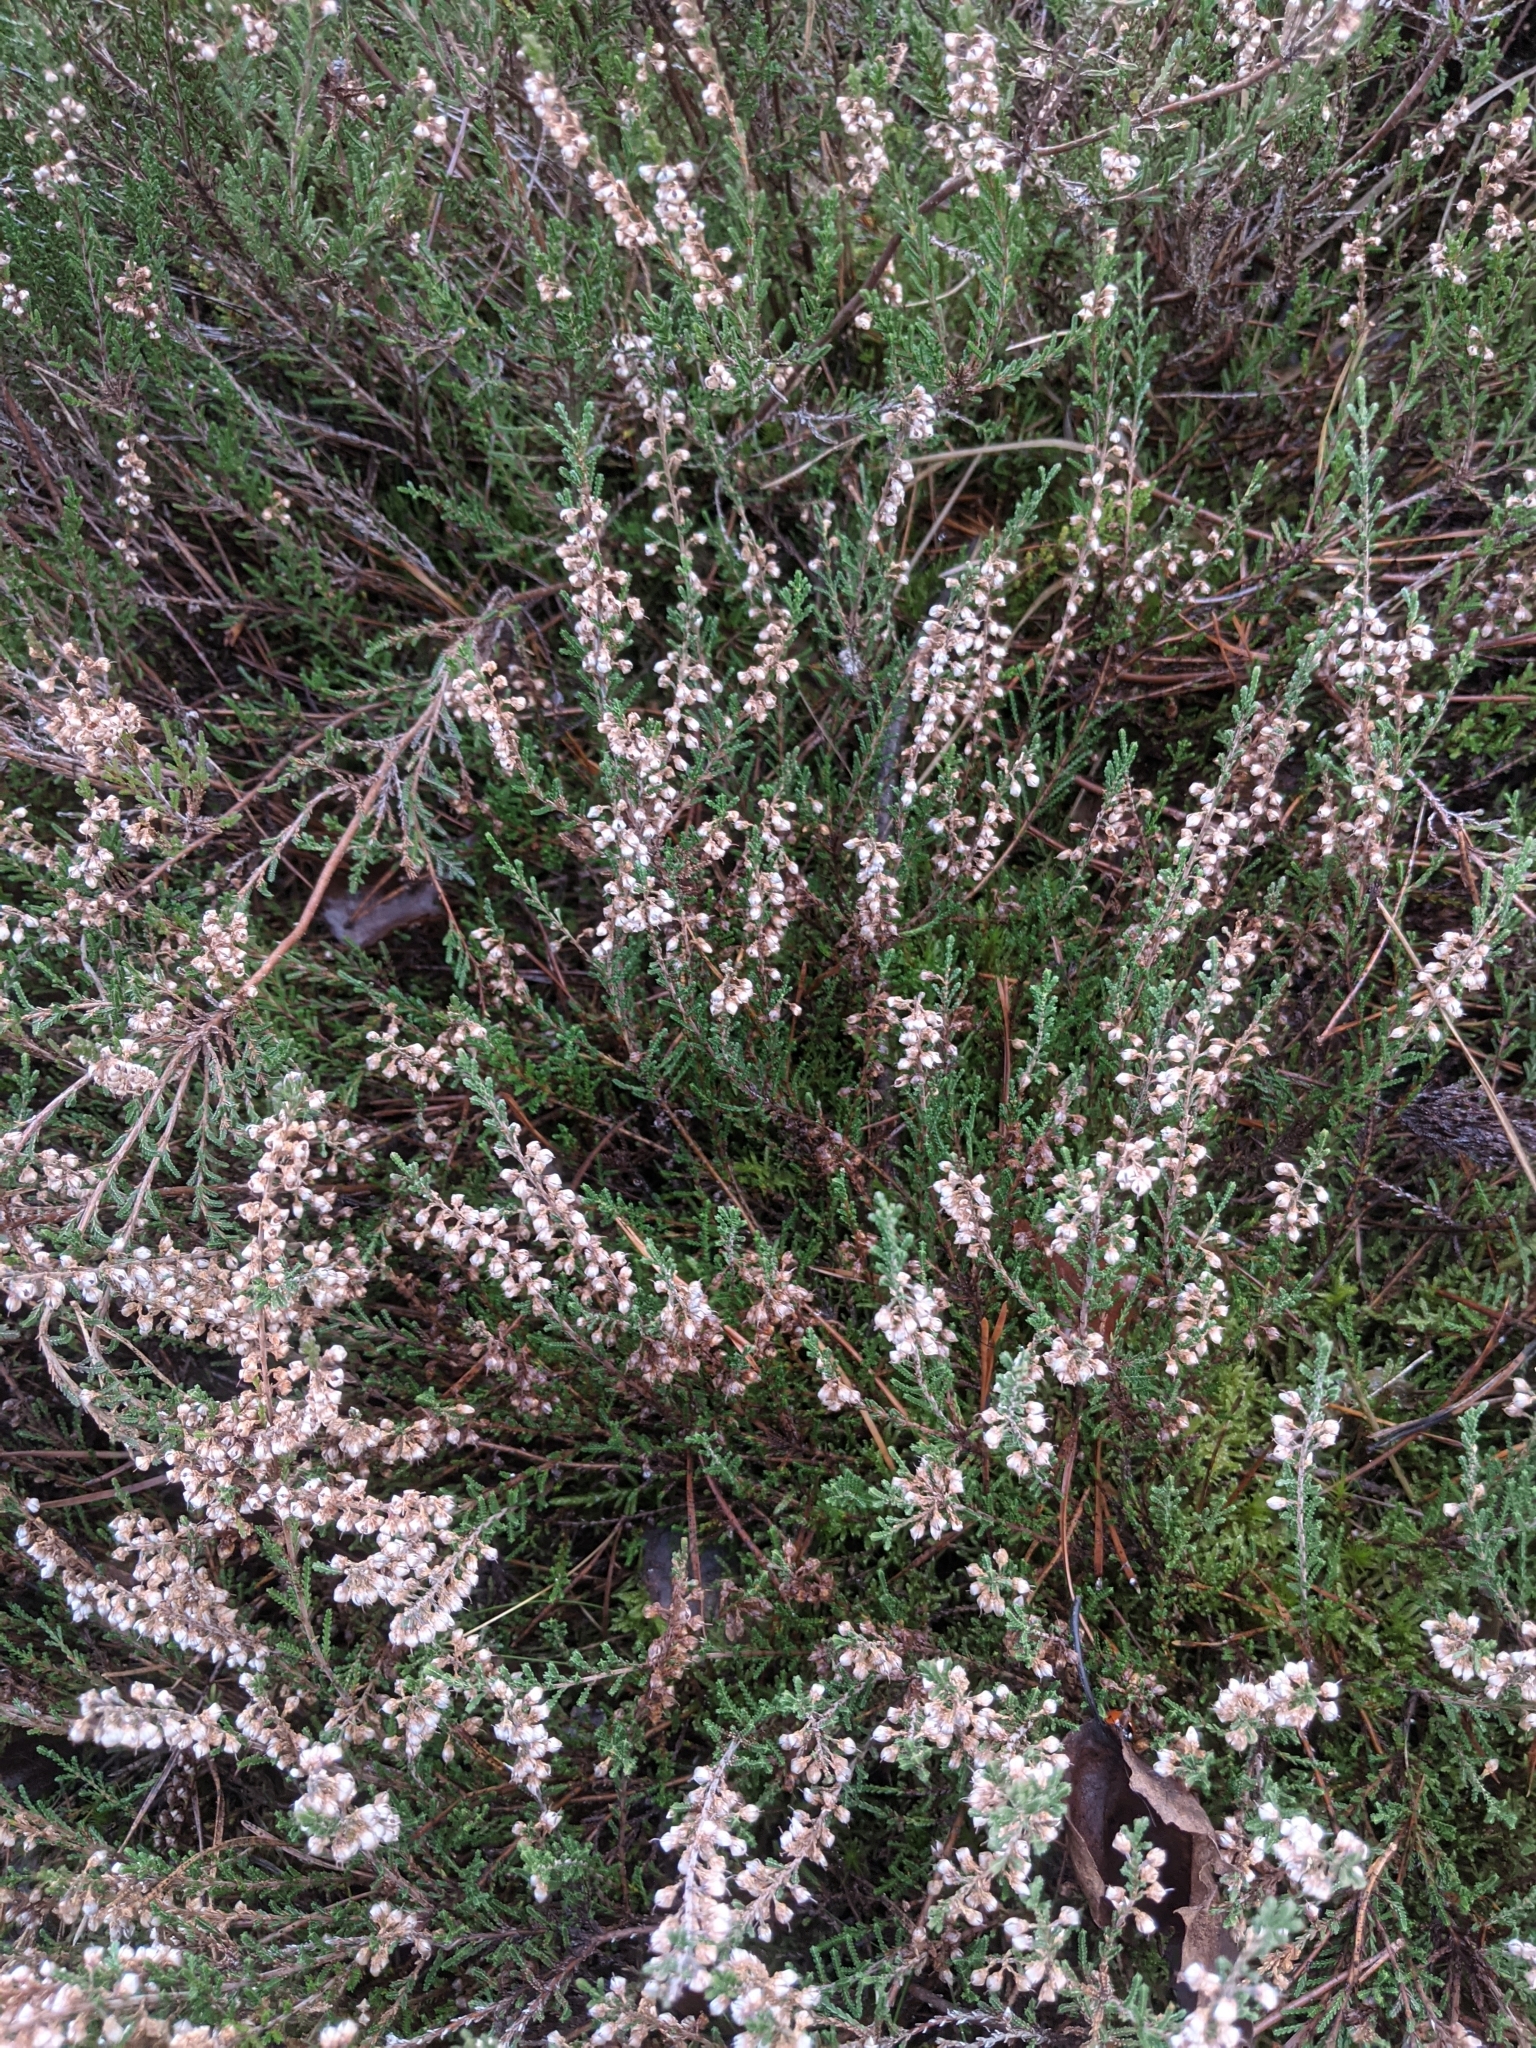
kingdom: Plantae
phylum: Tracheophyta
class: Magnoliopsida
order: Ericales
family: Ericaceae
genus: Calluna
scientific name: Calluna vulgaris
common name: Heather
